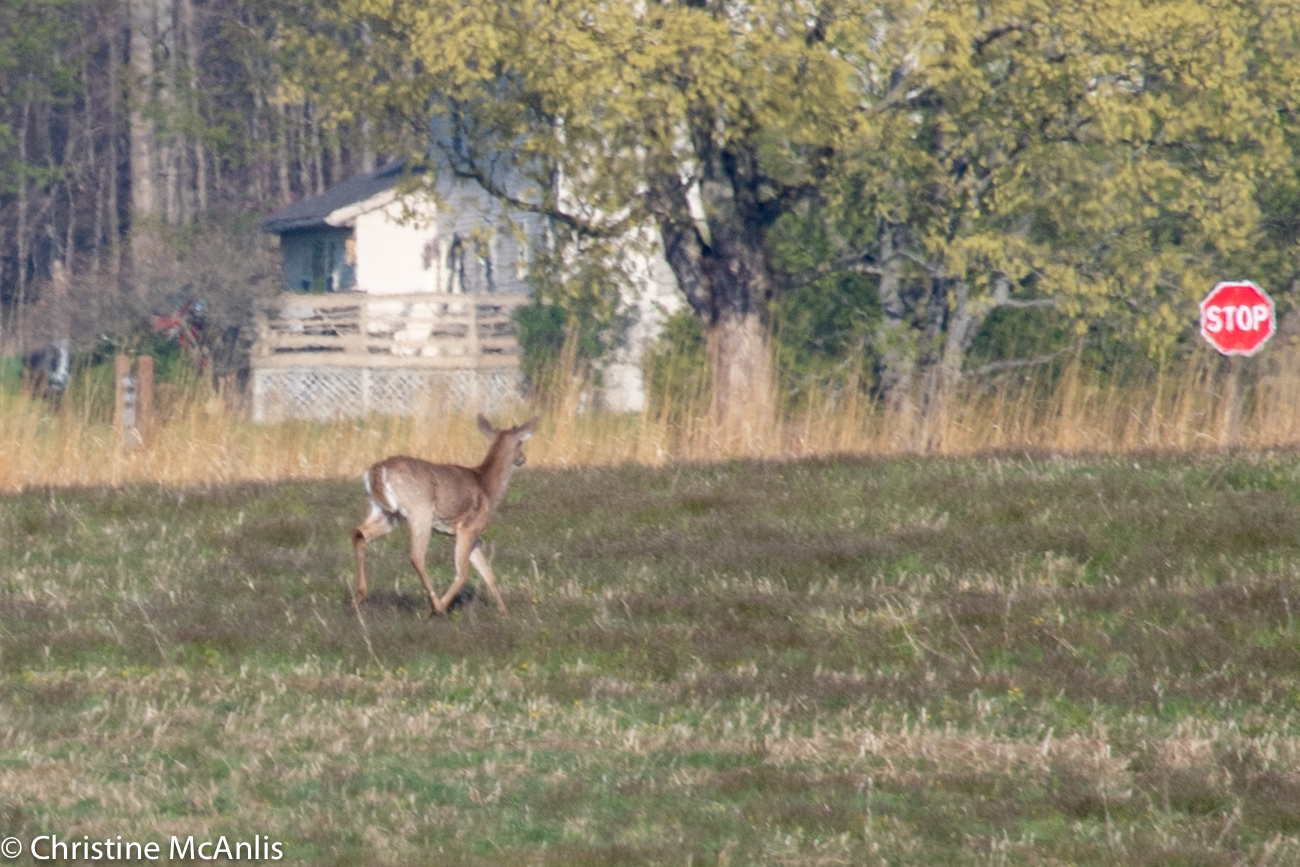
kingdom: Animalia
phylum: Chordata
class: Mammalia
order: Artiodactyla
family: Cervidae
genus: Odocoileus
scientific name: Odocoileus virginianus
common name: White-tailed deer
